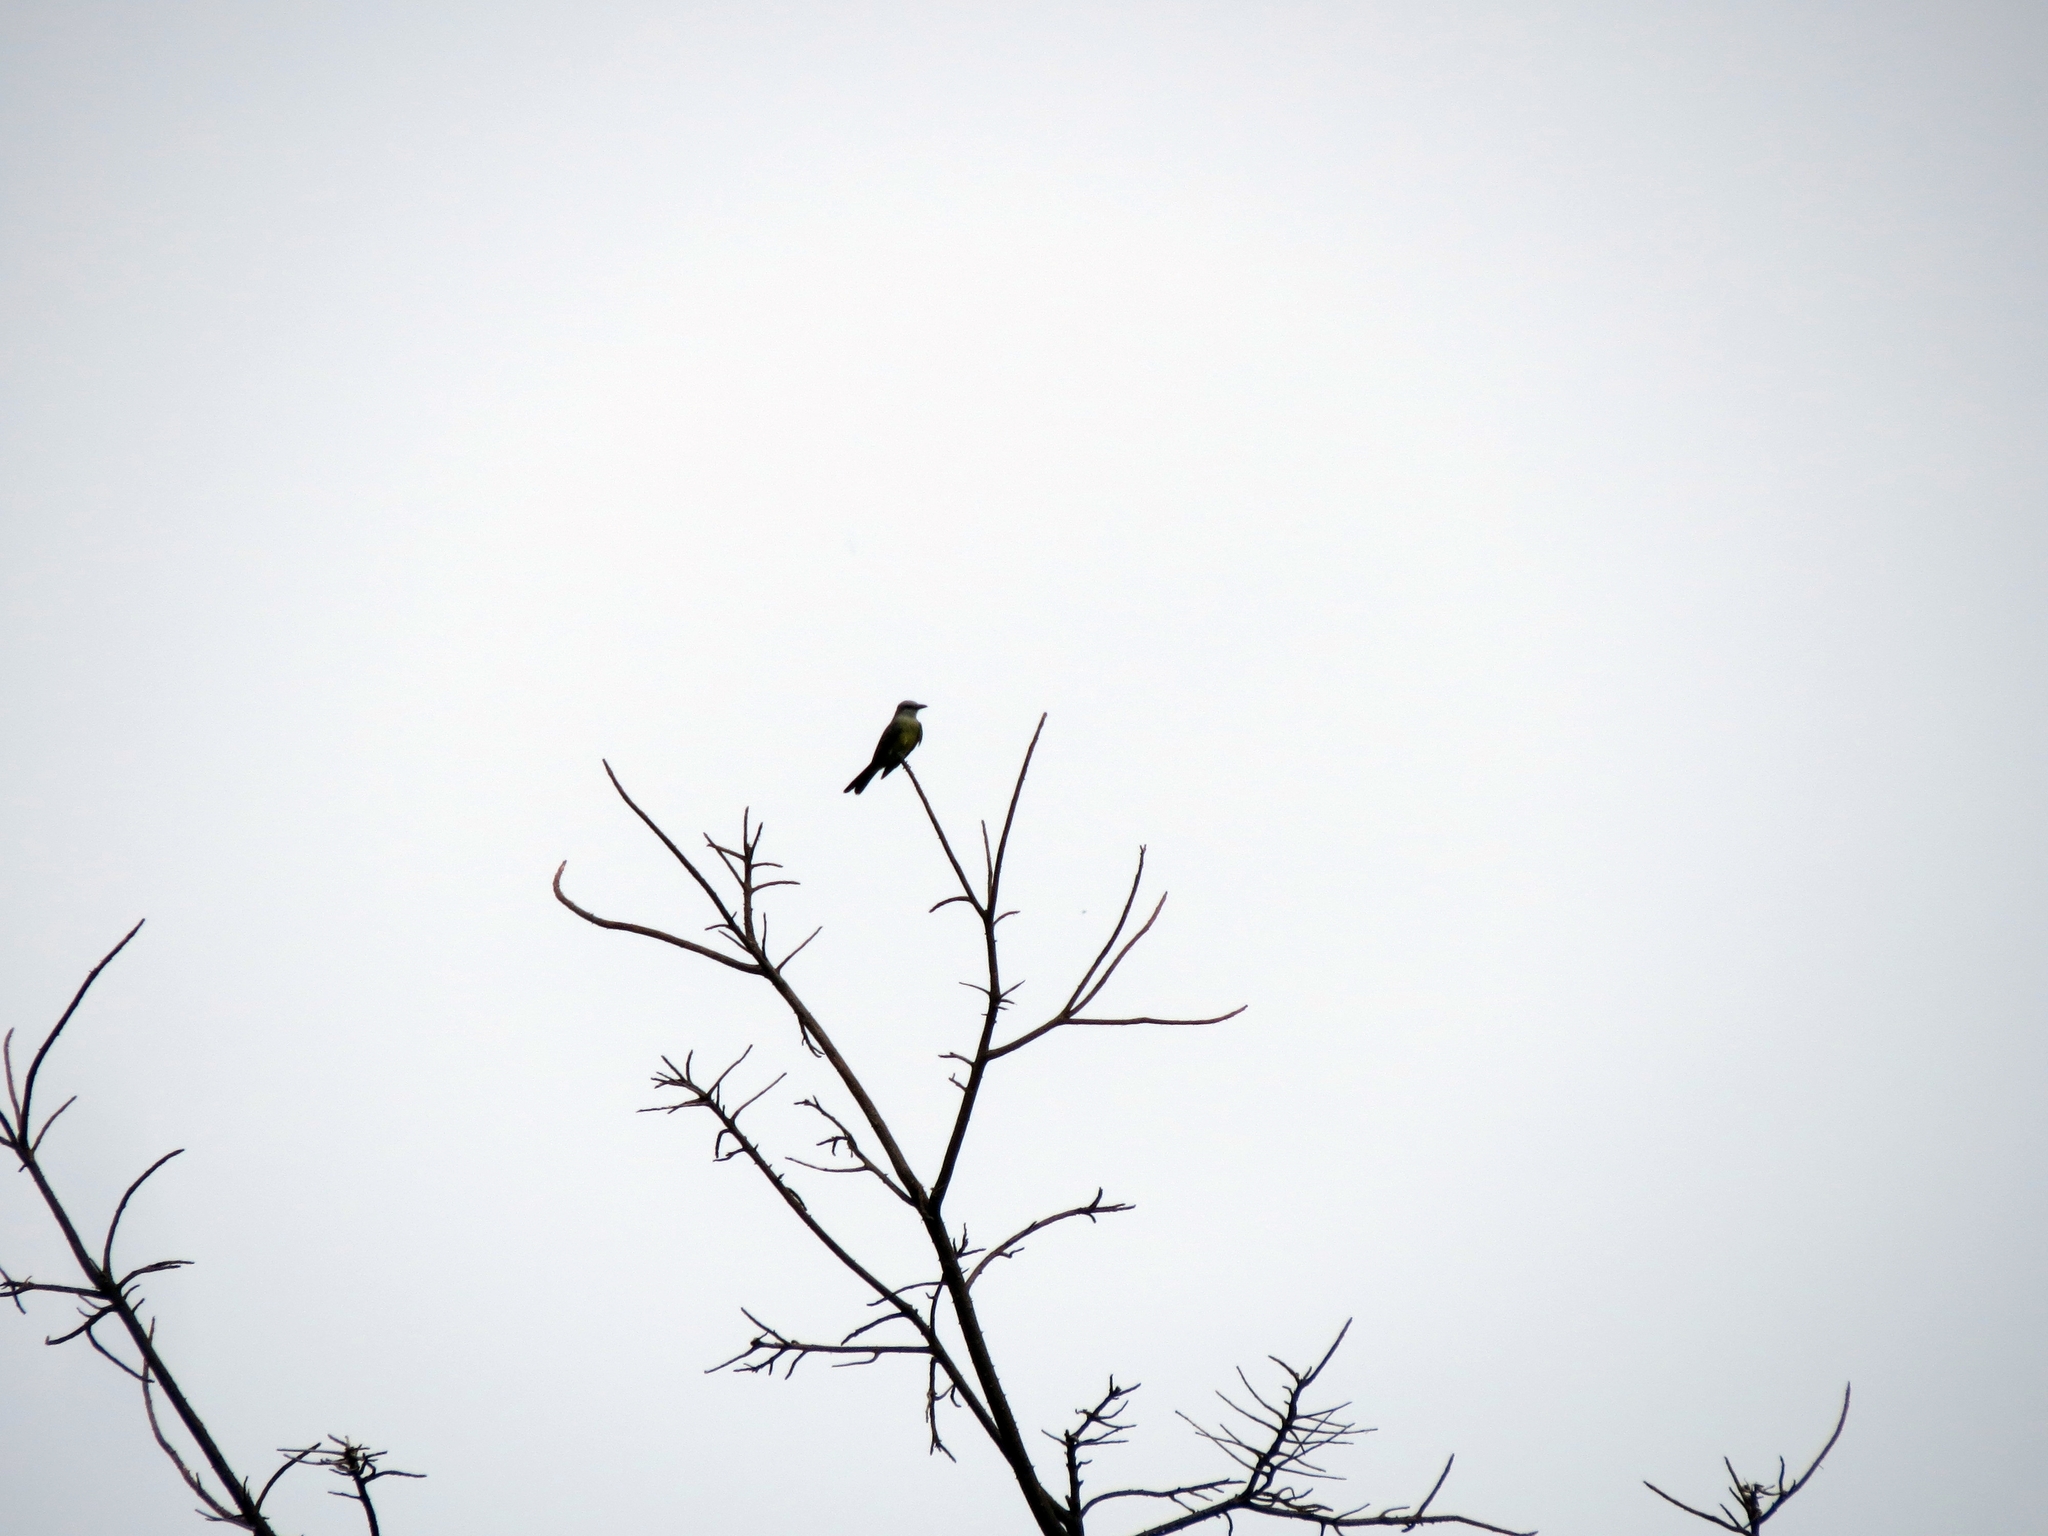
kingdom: Animalia
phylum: Chordata
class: Aves
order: Passeriformes
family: Tyrannidae
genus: Tyrannus
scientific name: Tyrannus melancholicus
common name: Tropical kingbird
